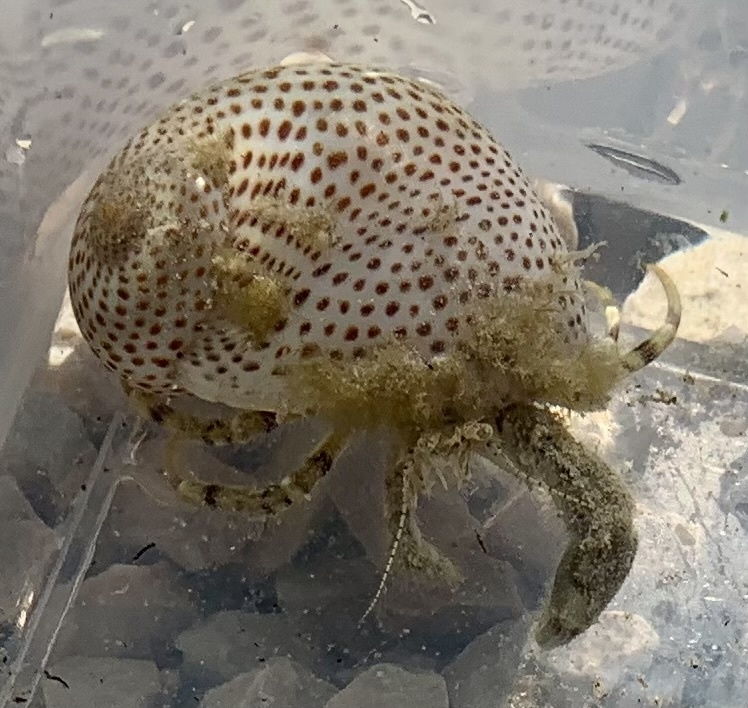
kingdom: Animalia
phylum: Arthropoda
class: Malacostraca
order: Decapoda
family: Diogenidae
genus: Diogenes
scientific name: Diogenes pugilator
